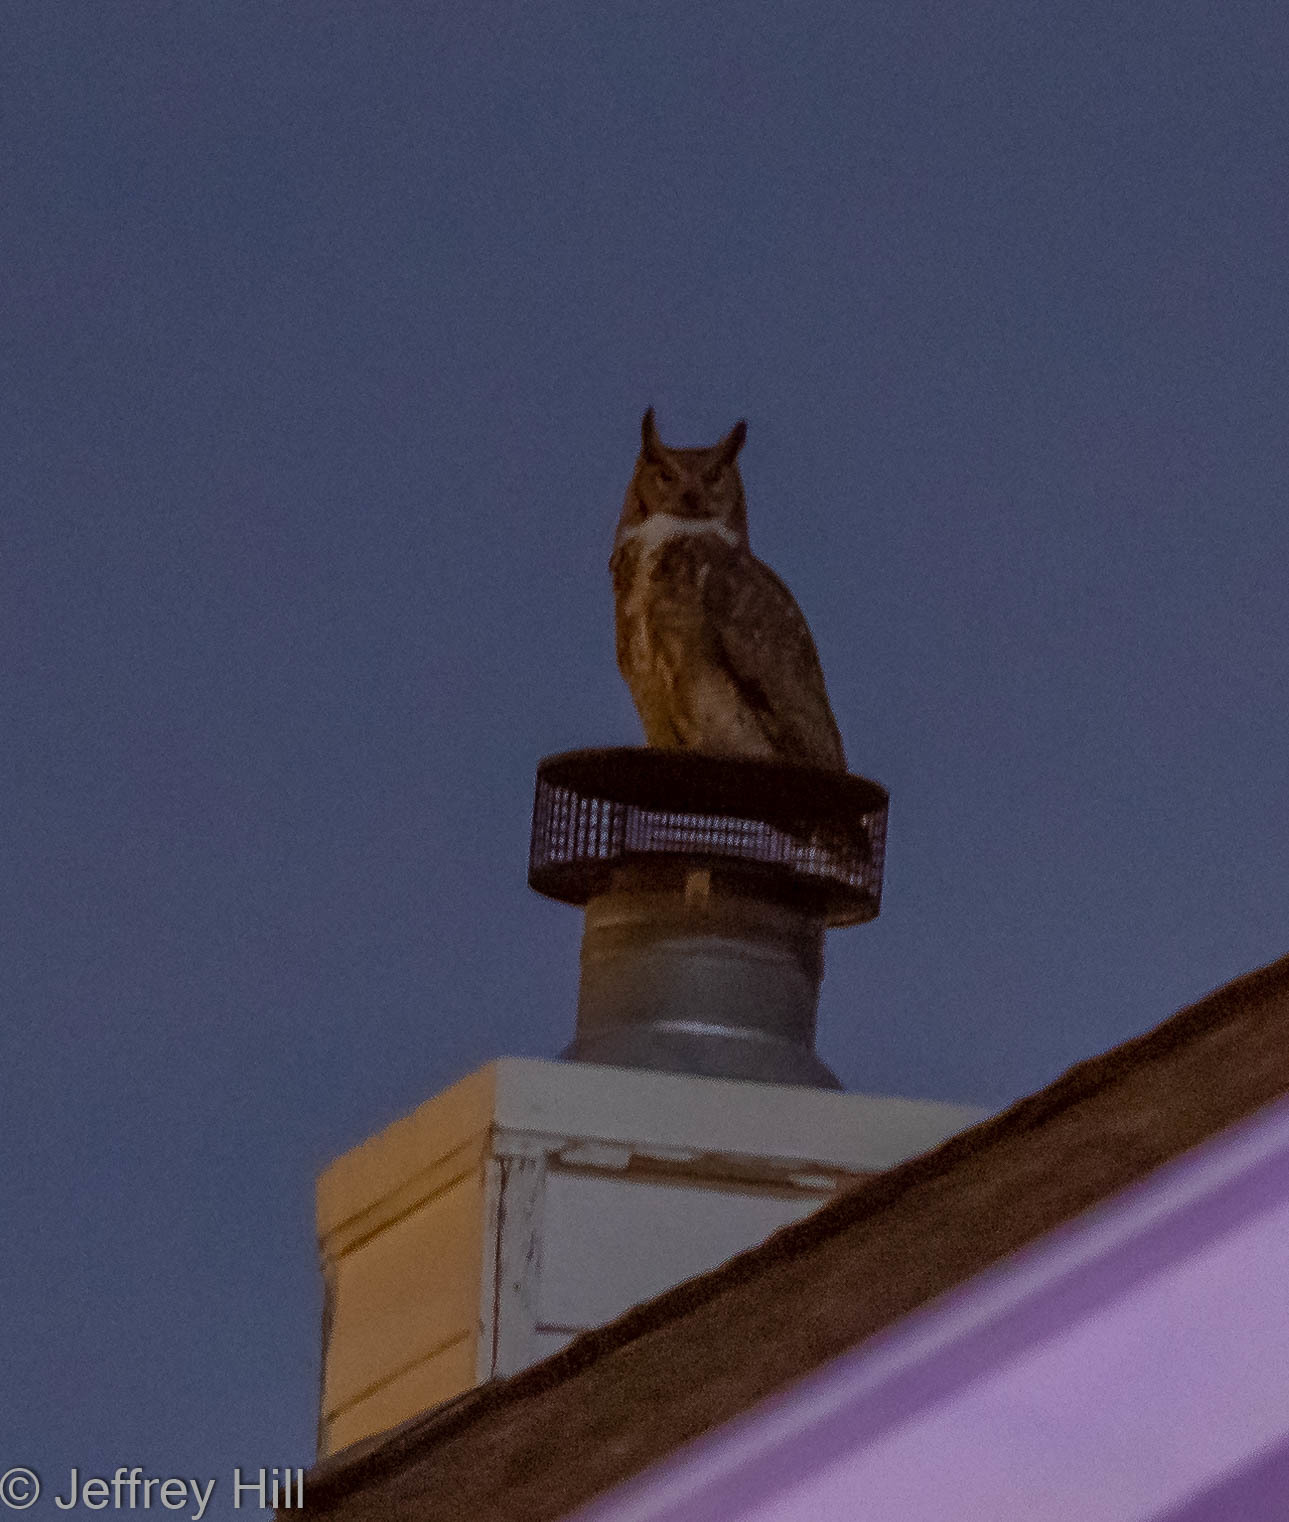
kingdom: Animalia
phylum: Chordata
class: Aves
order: Strigiformes
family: Strigidae
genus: Bubo
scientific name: Bubo virginianus
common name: Great horned owl
